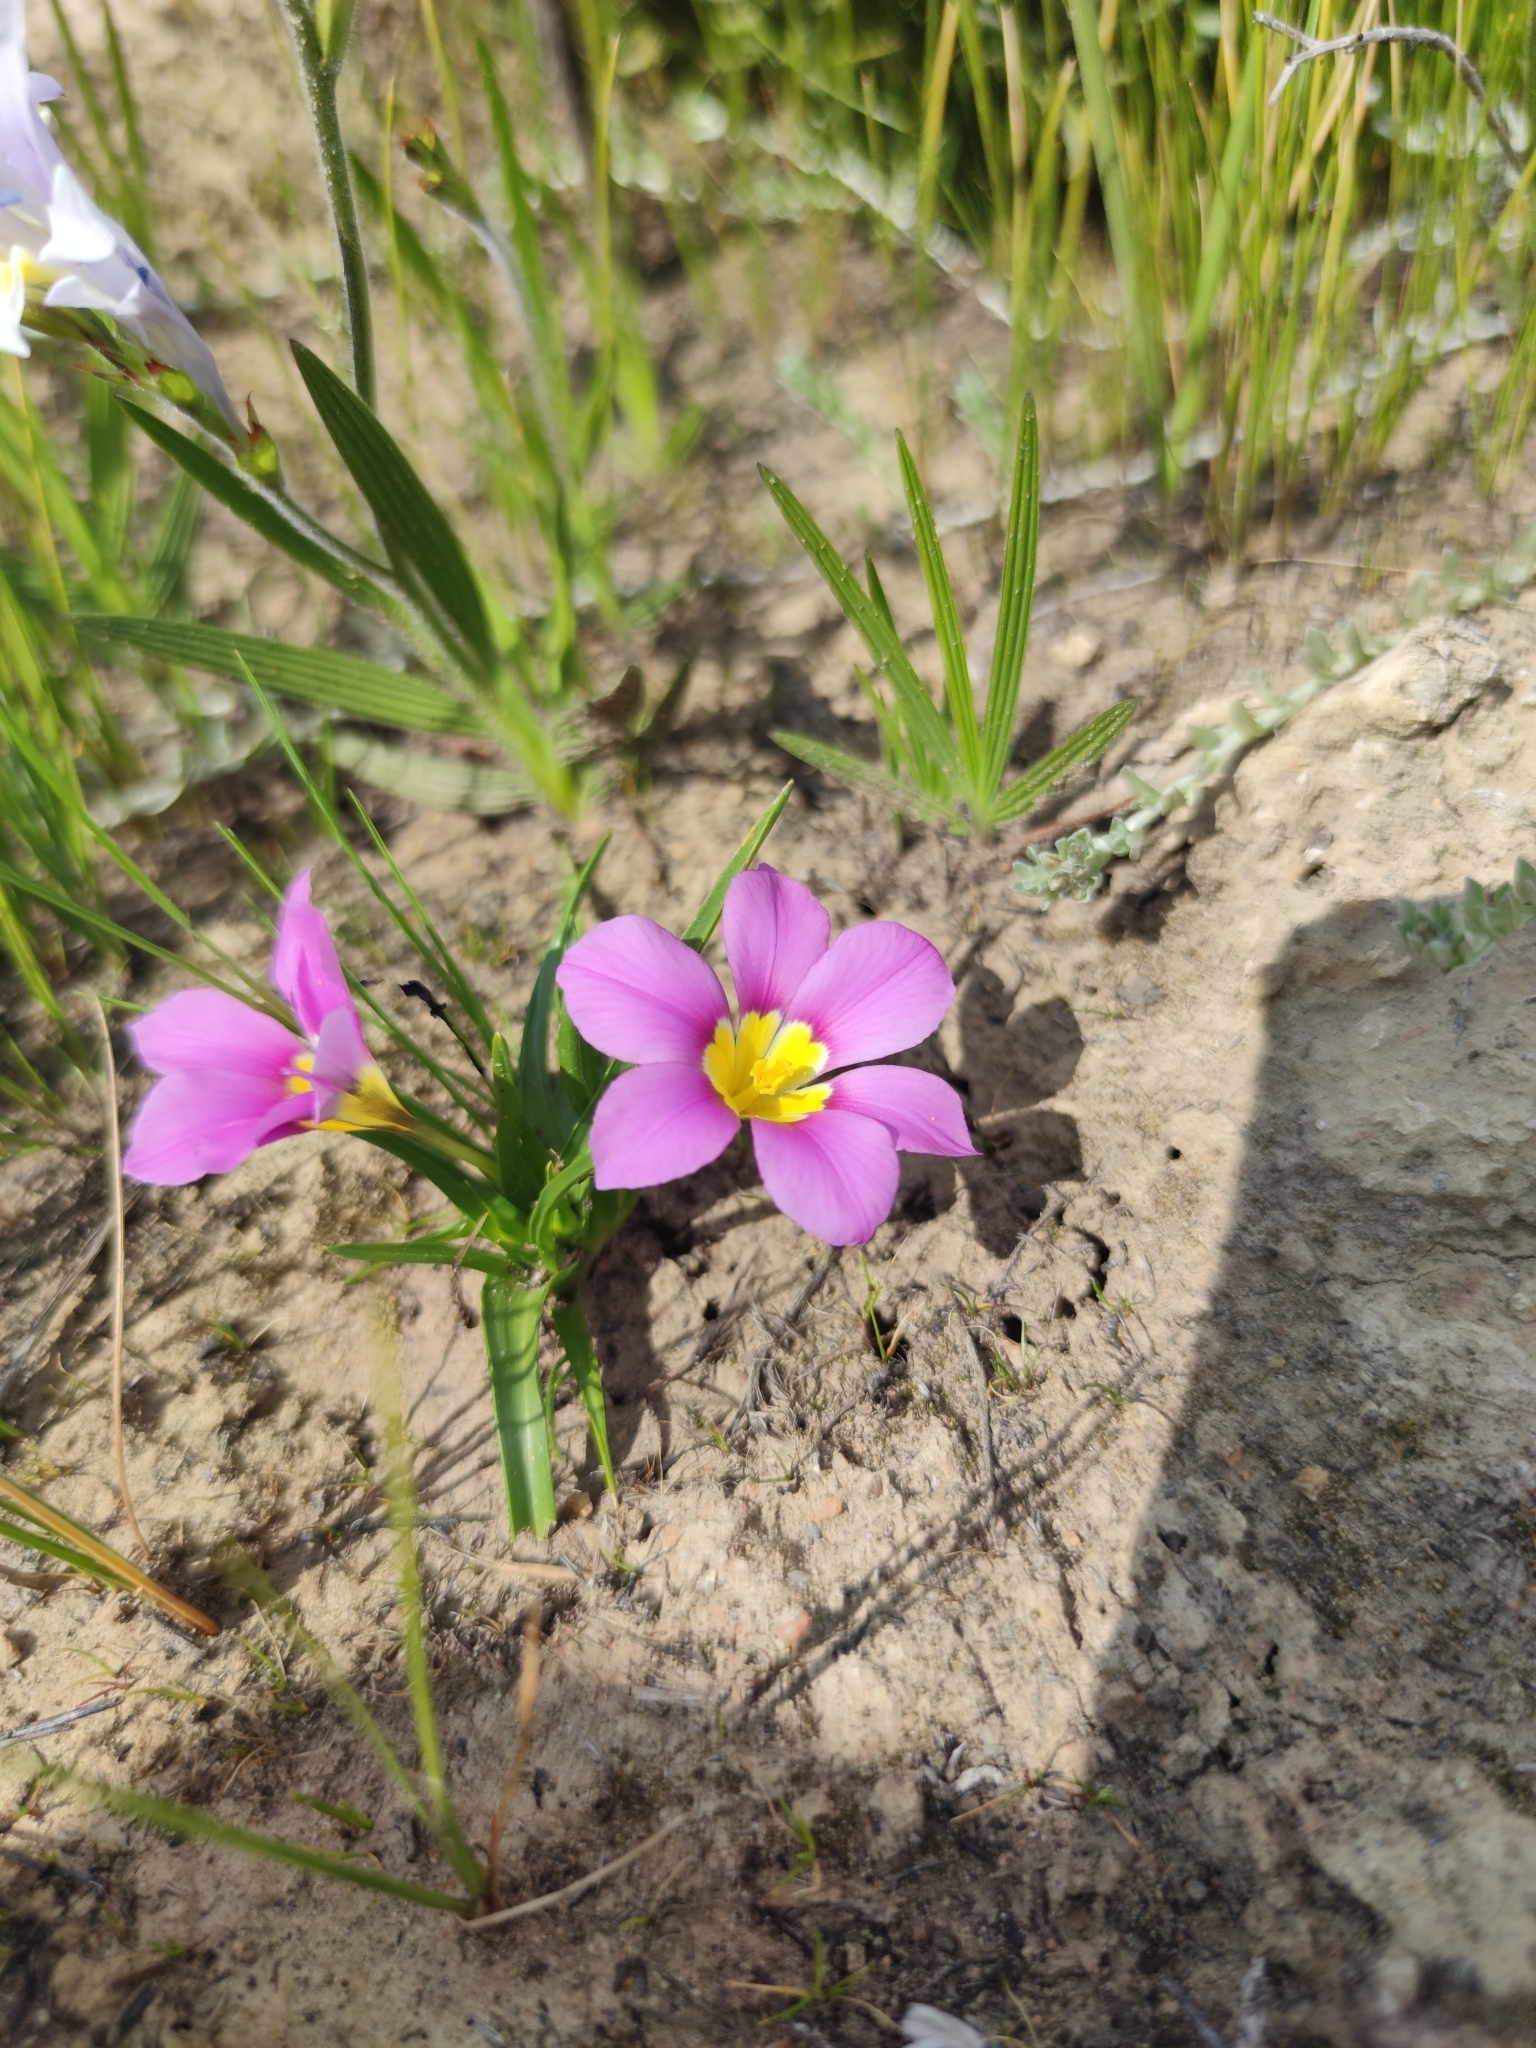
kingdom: Plantae
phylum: Tracheophyta
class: Liliopsida
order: Asparagales
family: Iridaceae
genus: Moraea
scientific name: Moraea variabilis
